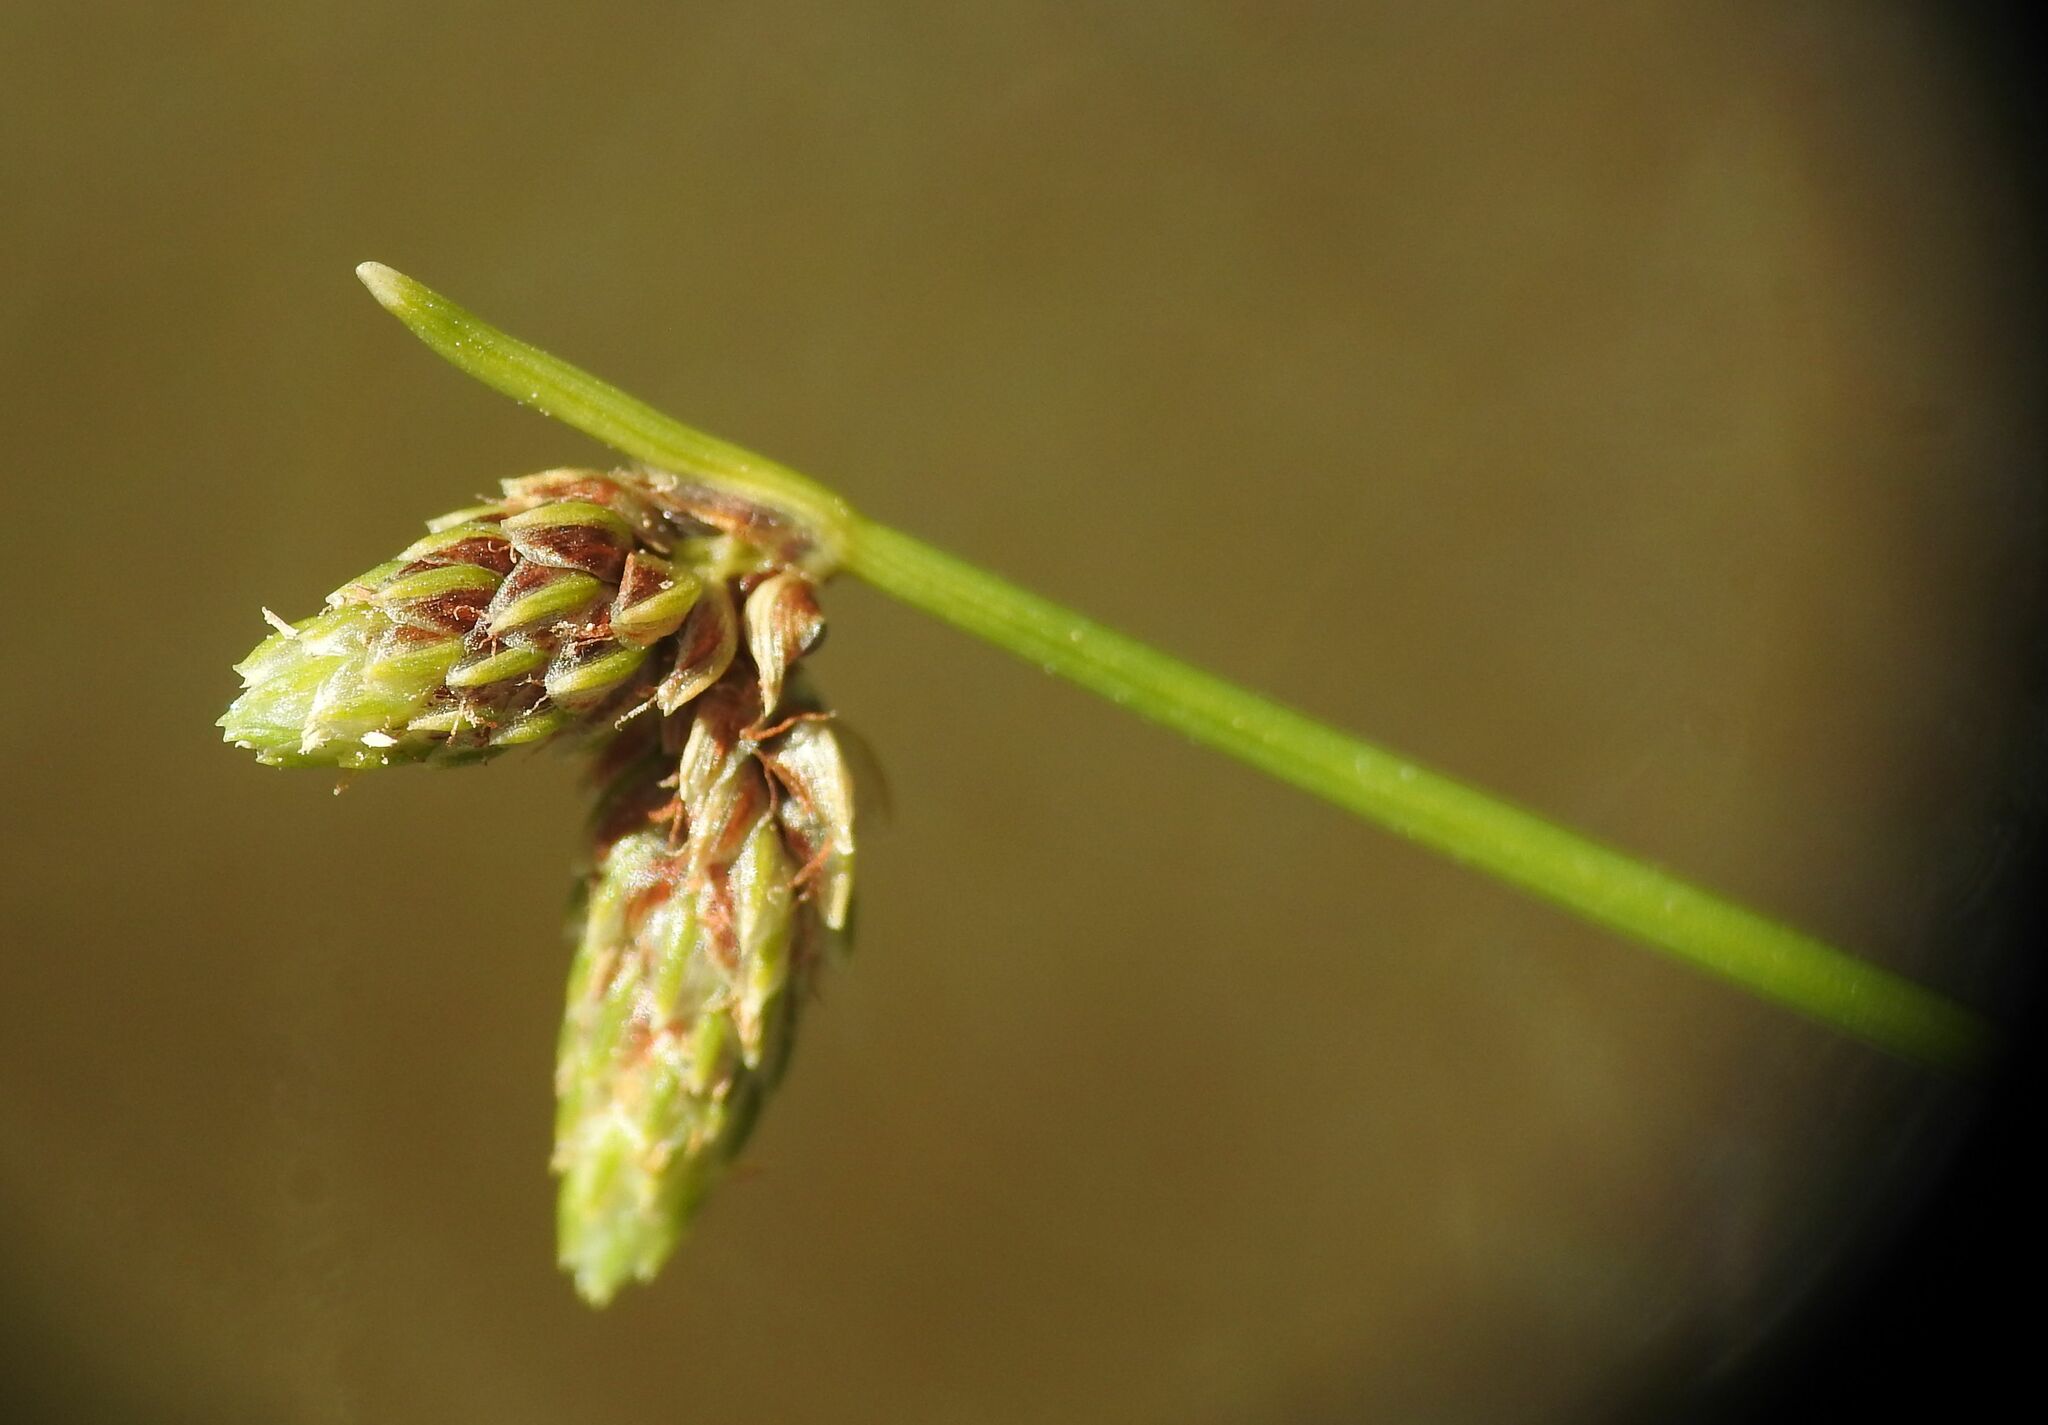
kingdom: Plantae
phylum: Tracheophyta
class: Liliopsida
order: Poales
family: Cyperaceae
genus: Isolepis
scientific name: Isolepis setacea
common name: Bristle club-rush
